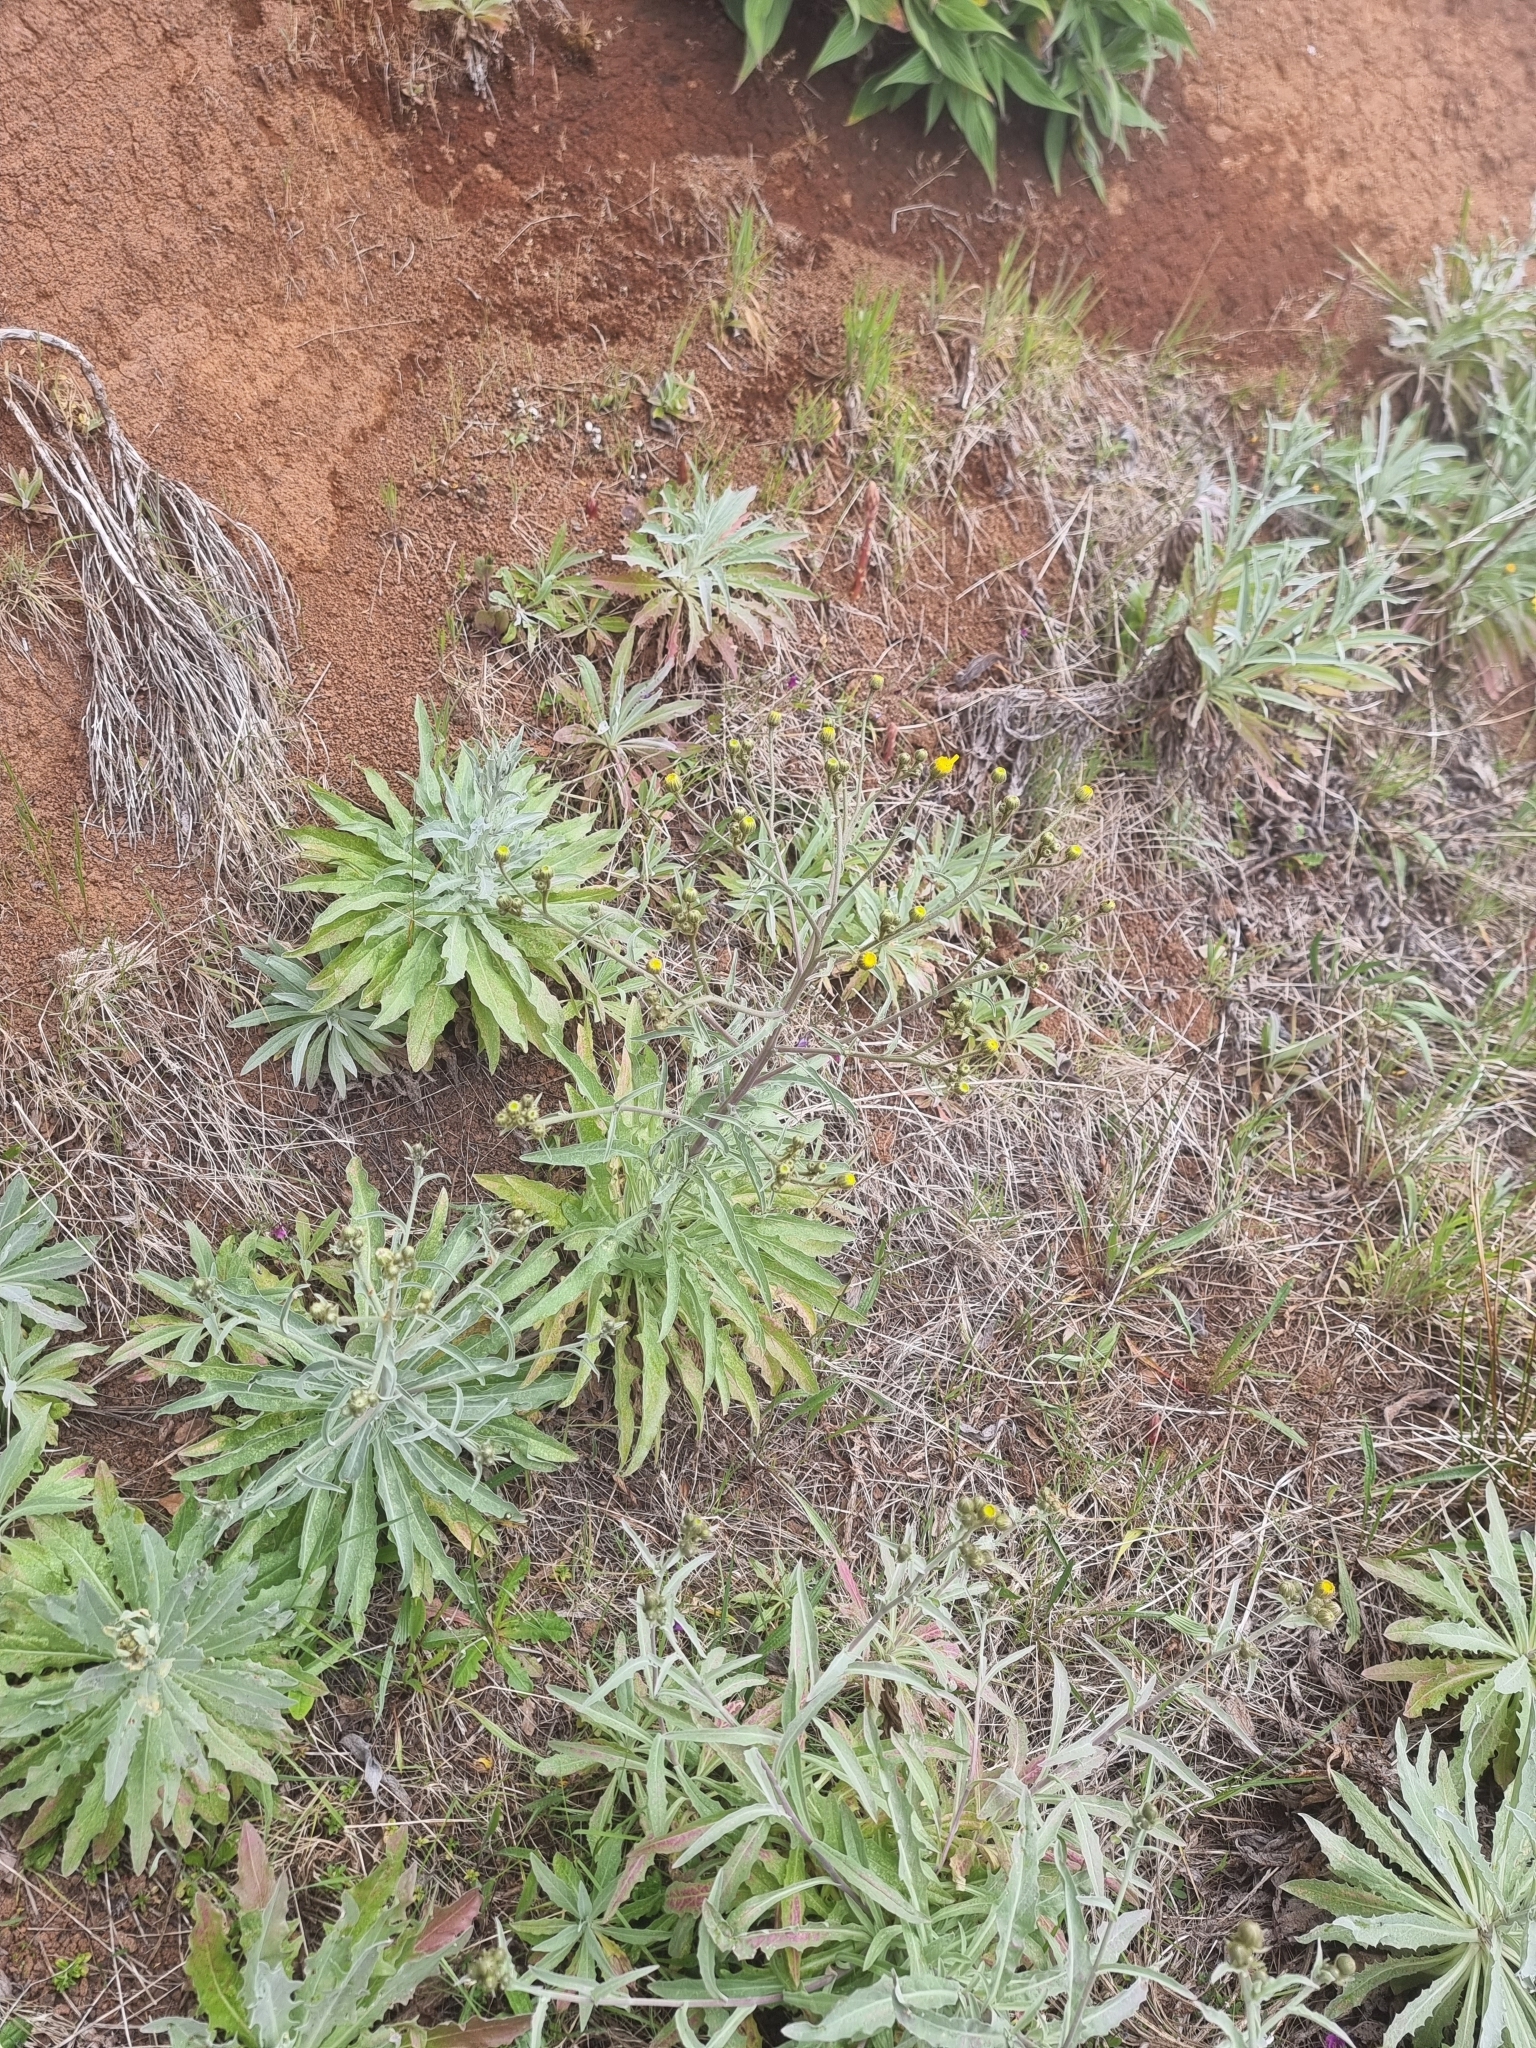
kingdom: Plantae
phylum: Tracheophyta
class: Magnoliopsida
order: Asterales
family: Asteraceae
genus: Andryala
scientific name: Andryala glandulosa
